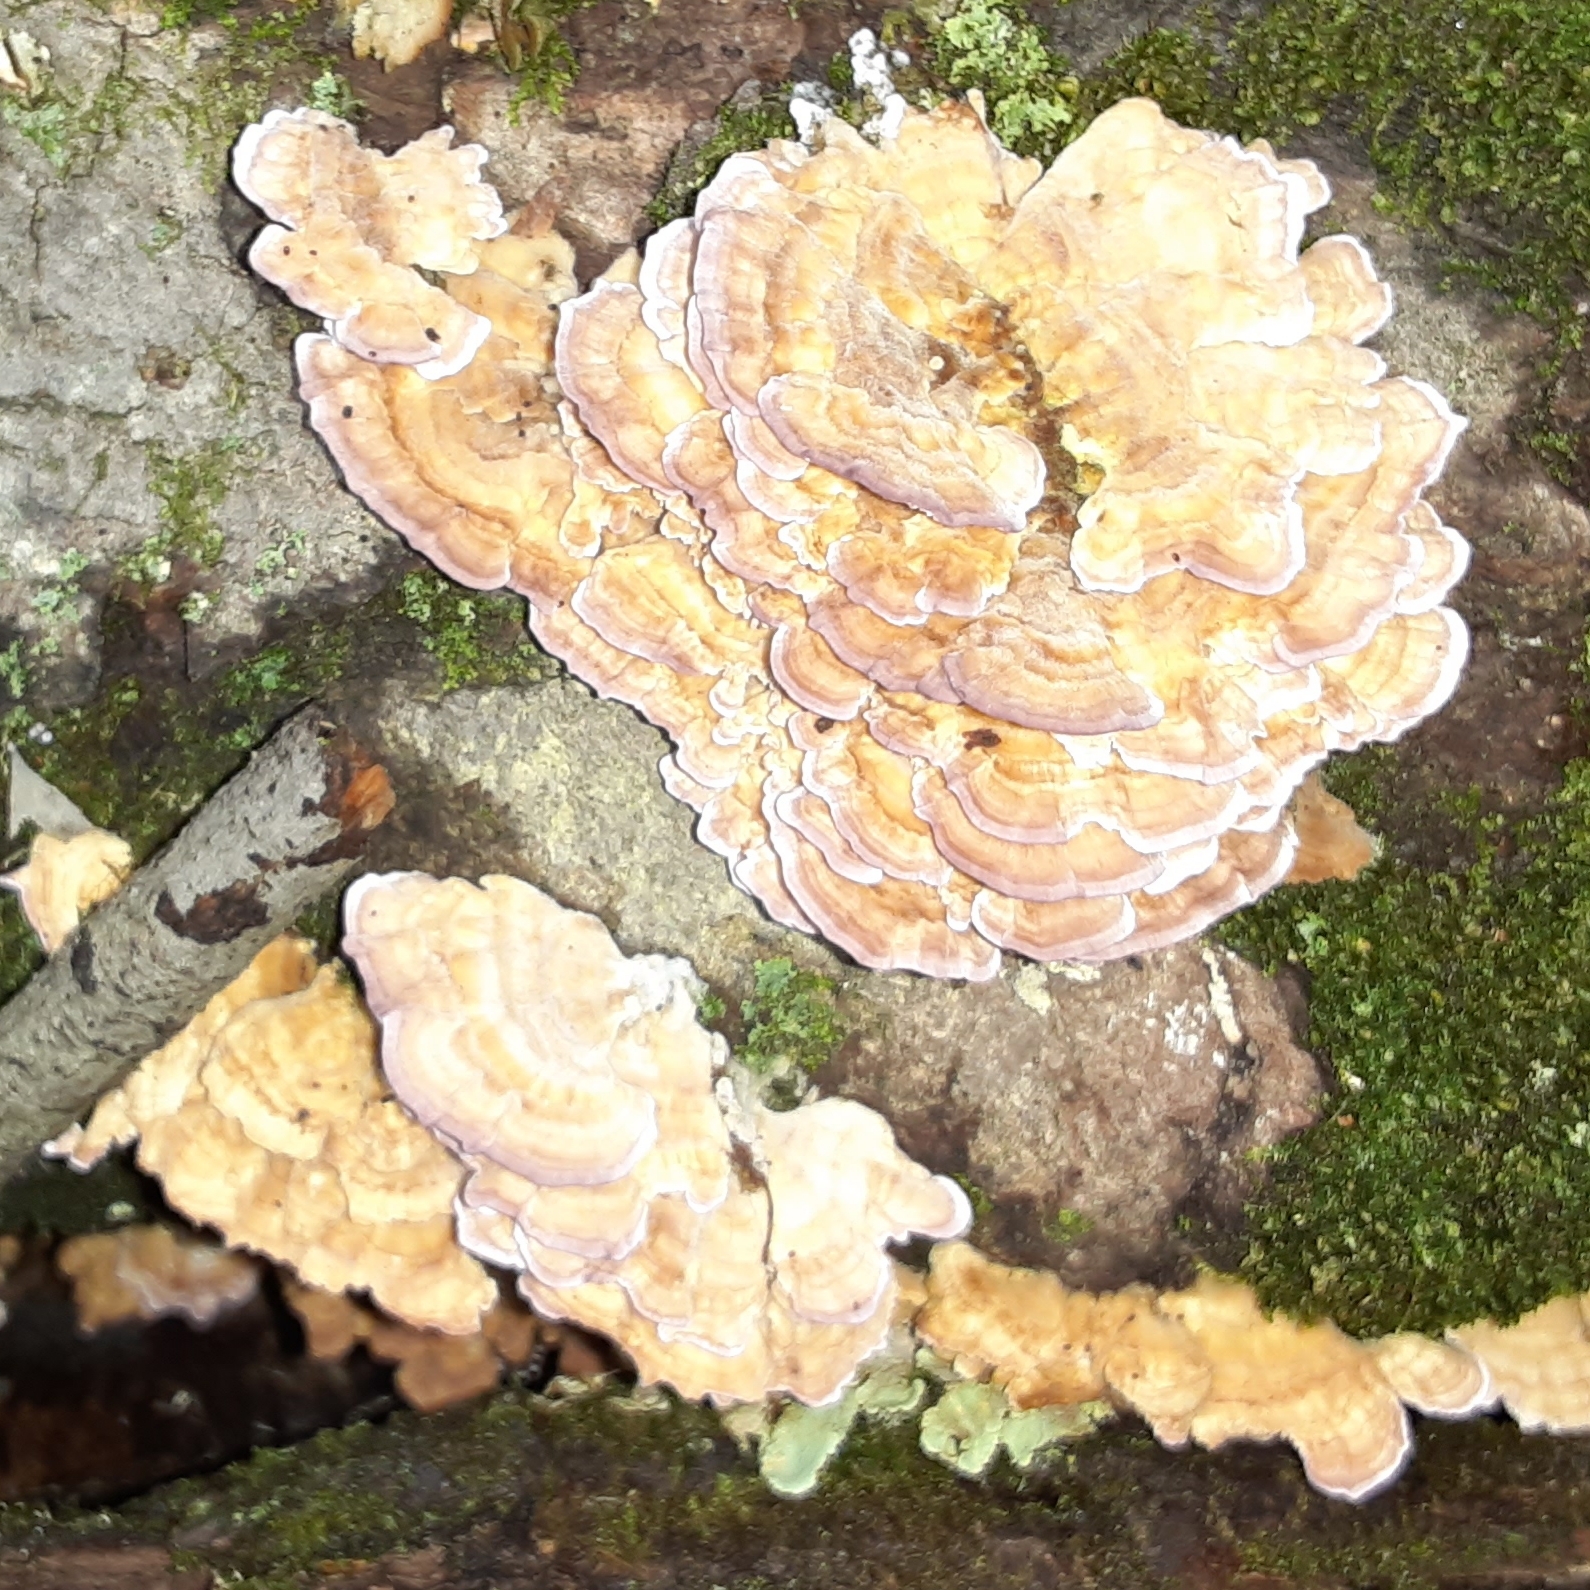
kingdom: Fungi
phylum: Basidiomycota
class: Agaricomycetes
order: Hymenochaetales
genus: Trichaptum
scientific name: Trichaptum biforme
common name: Violet-toothed polypore
